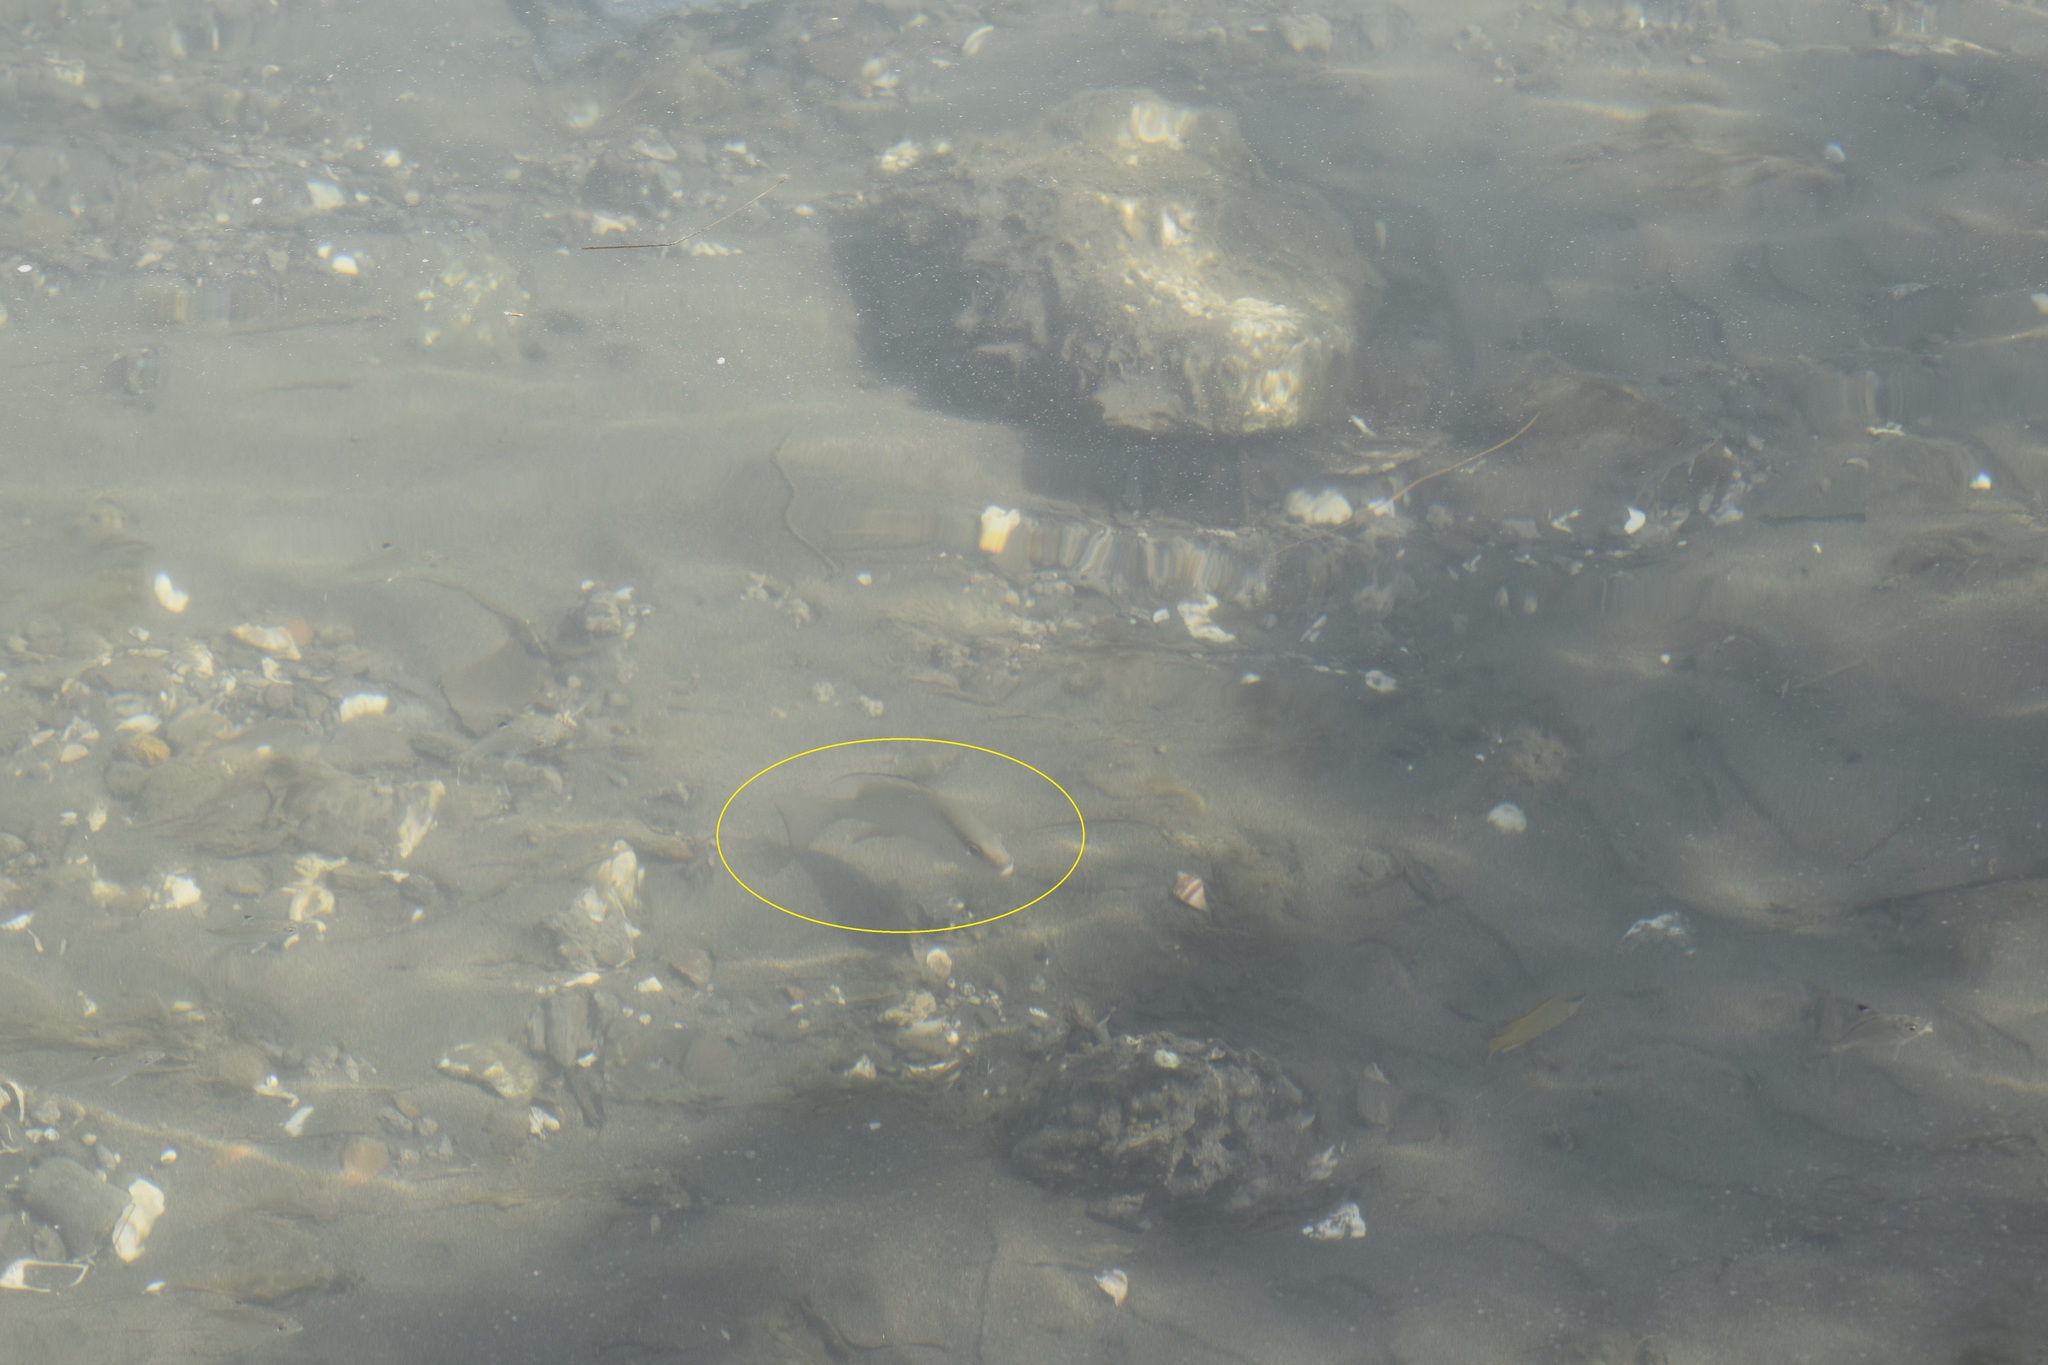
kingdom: Animalia
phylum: Chordata
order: Perciformes
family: Lutjanidae
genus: Lutjanus
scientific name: Lutjanus griseus
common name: Gray snapper
